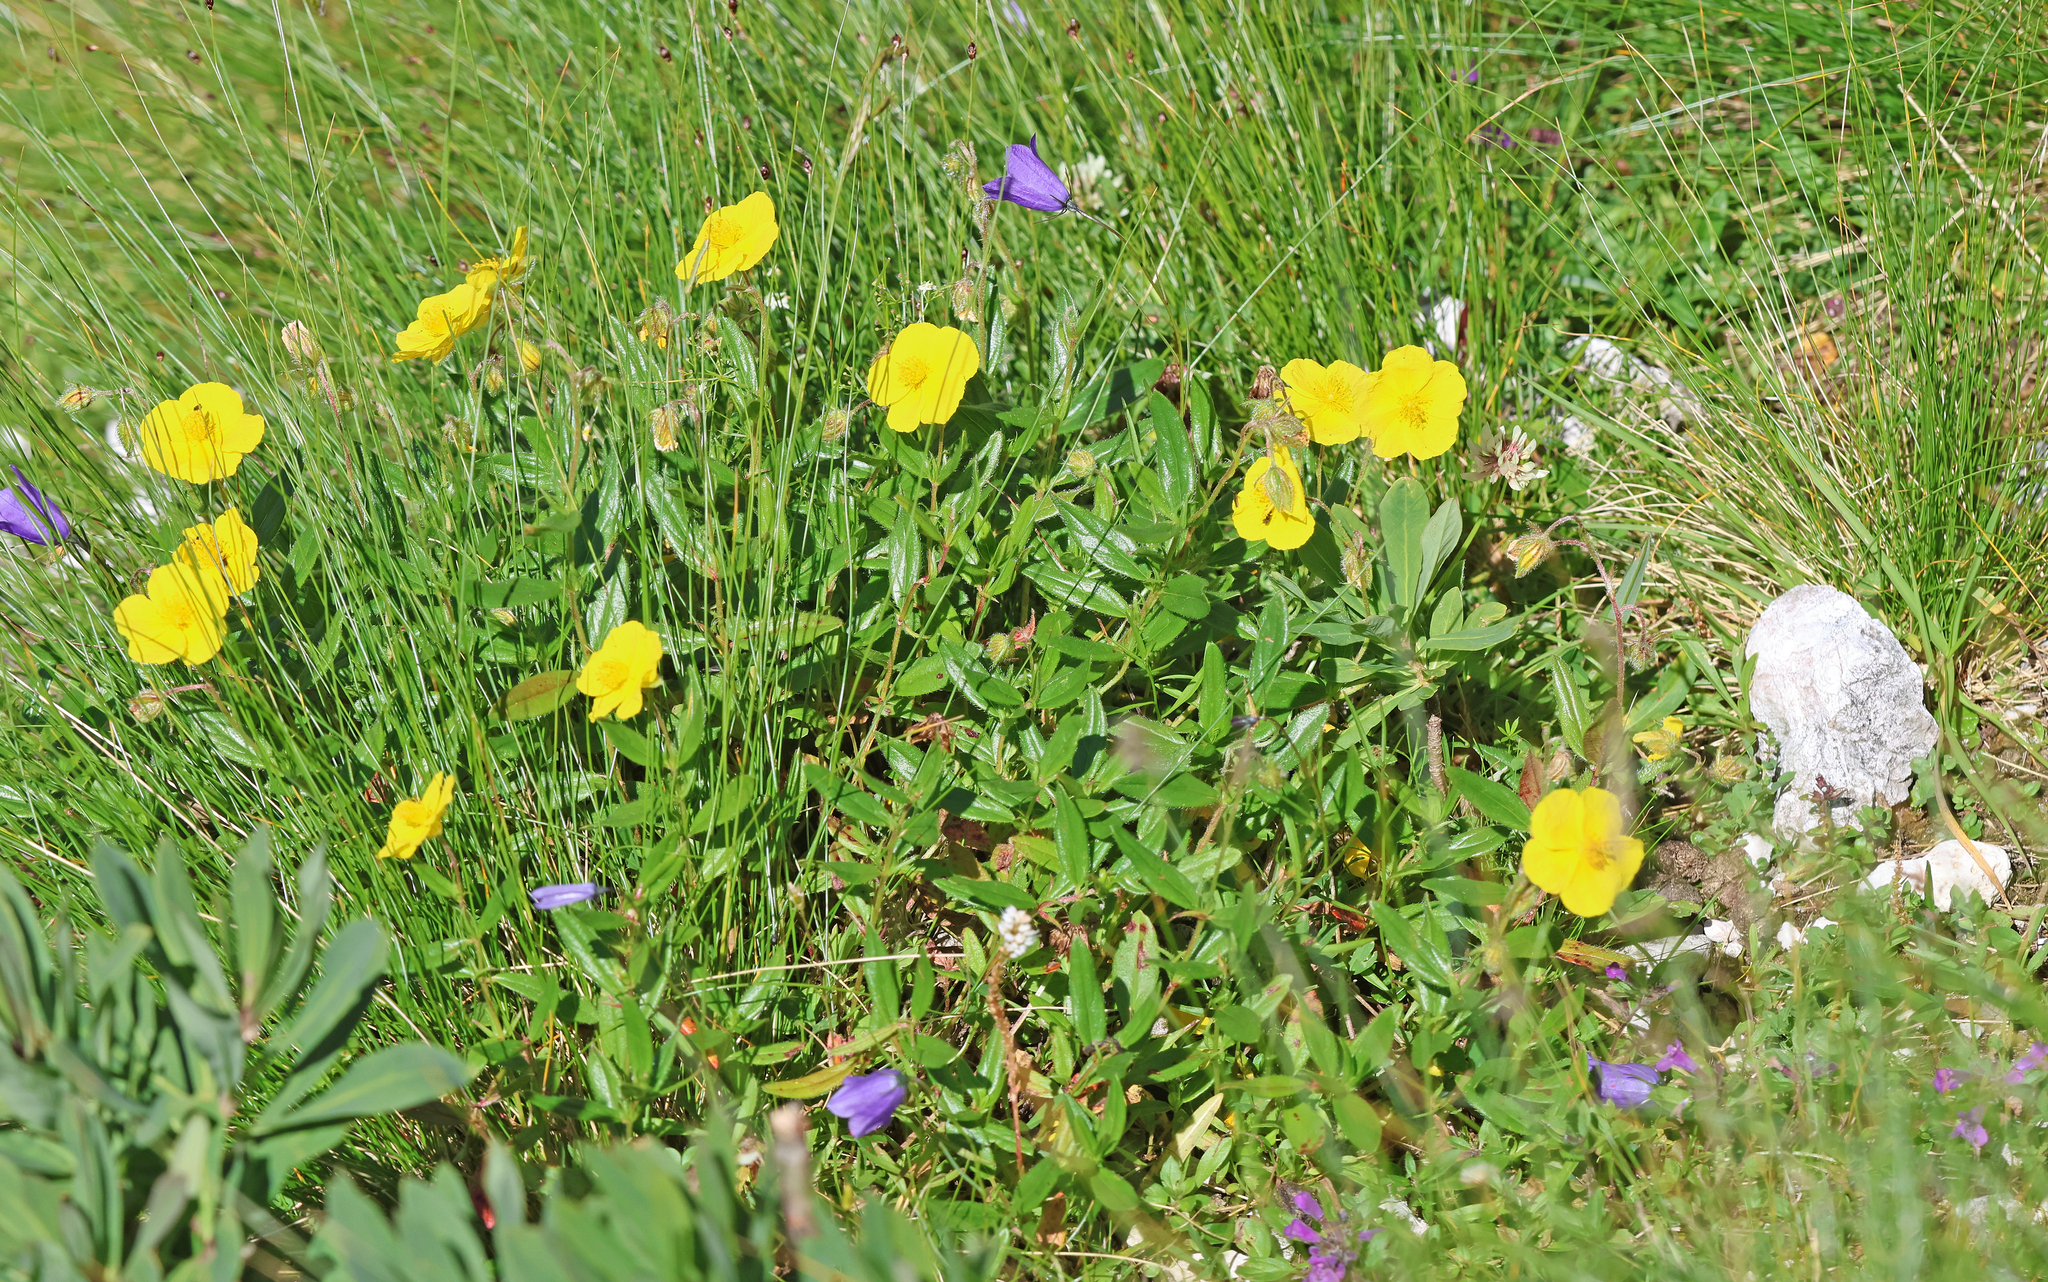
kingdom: Plantae
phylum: Tracheophyta
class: Magnoliopsida
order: Malvales
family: Cistaceae
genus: Helianthemum
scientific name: Helianthemum nummularium
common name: Common rock-rose
